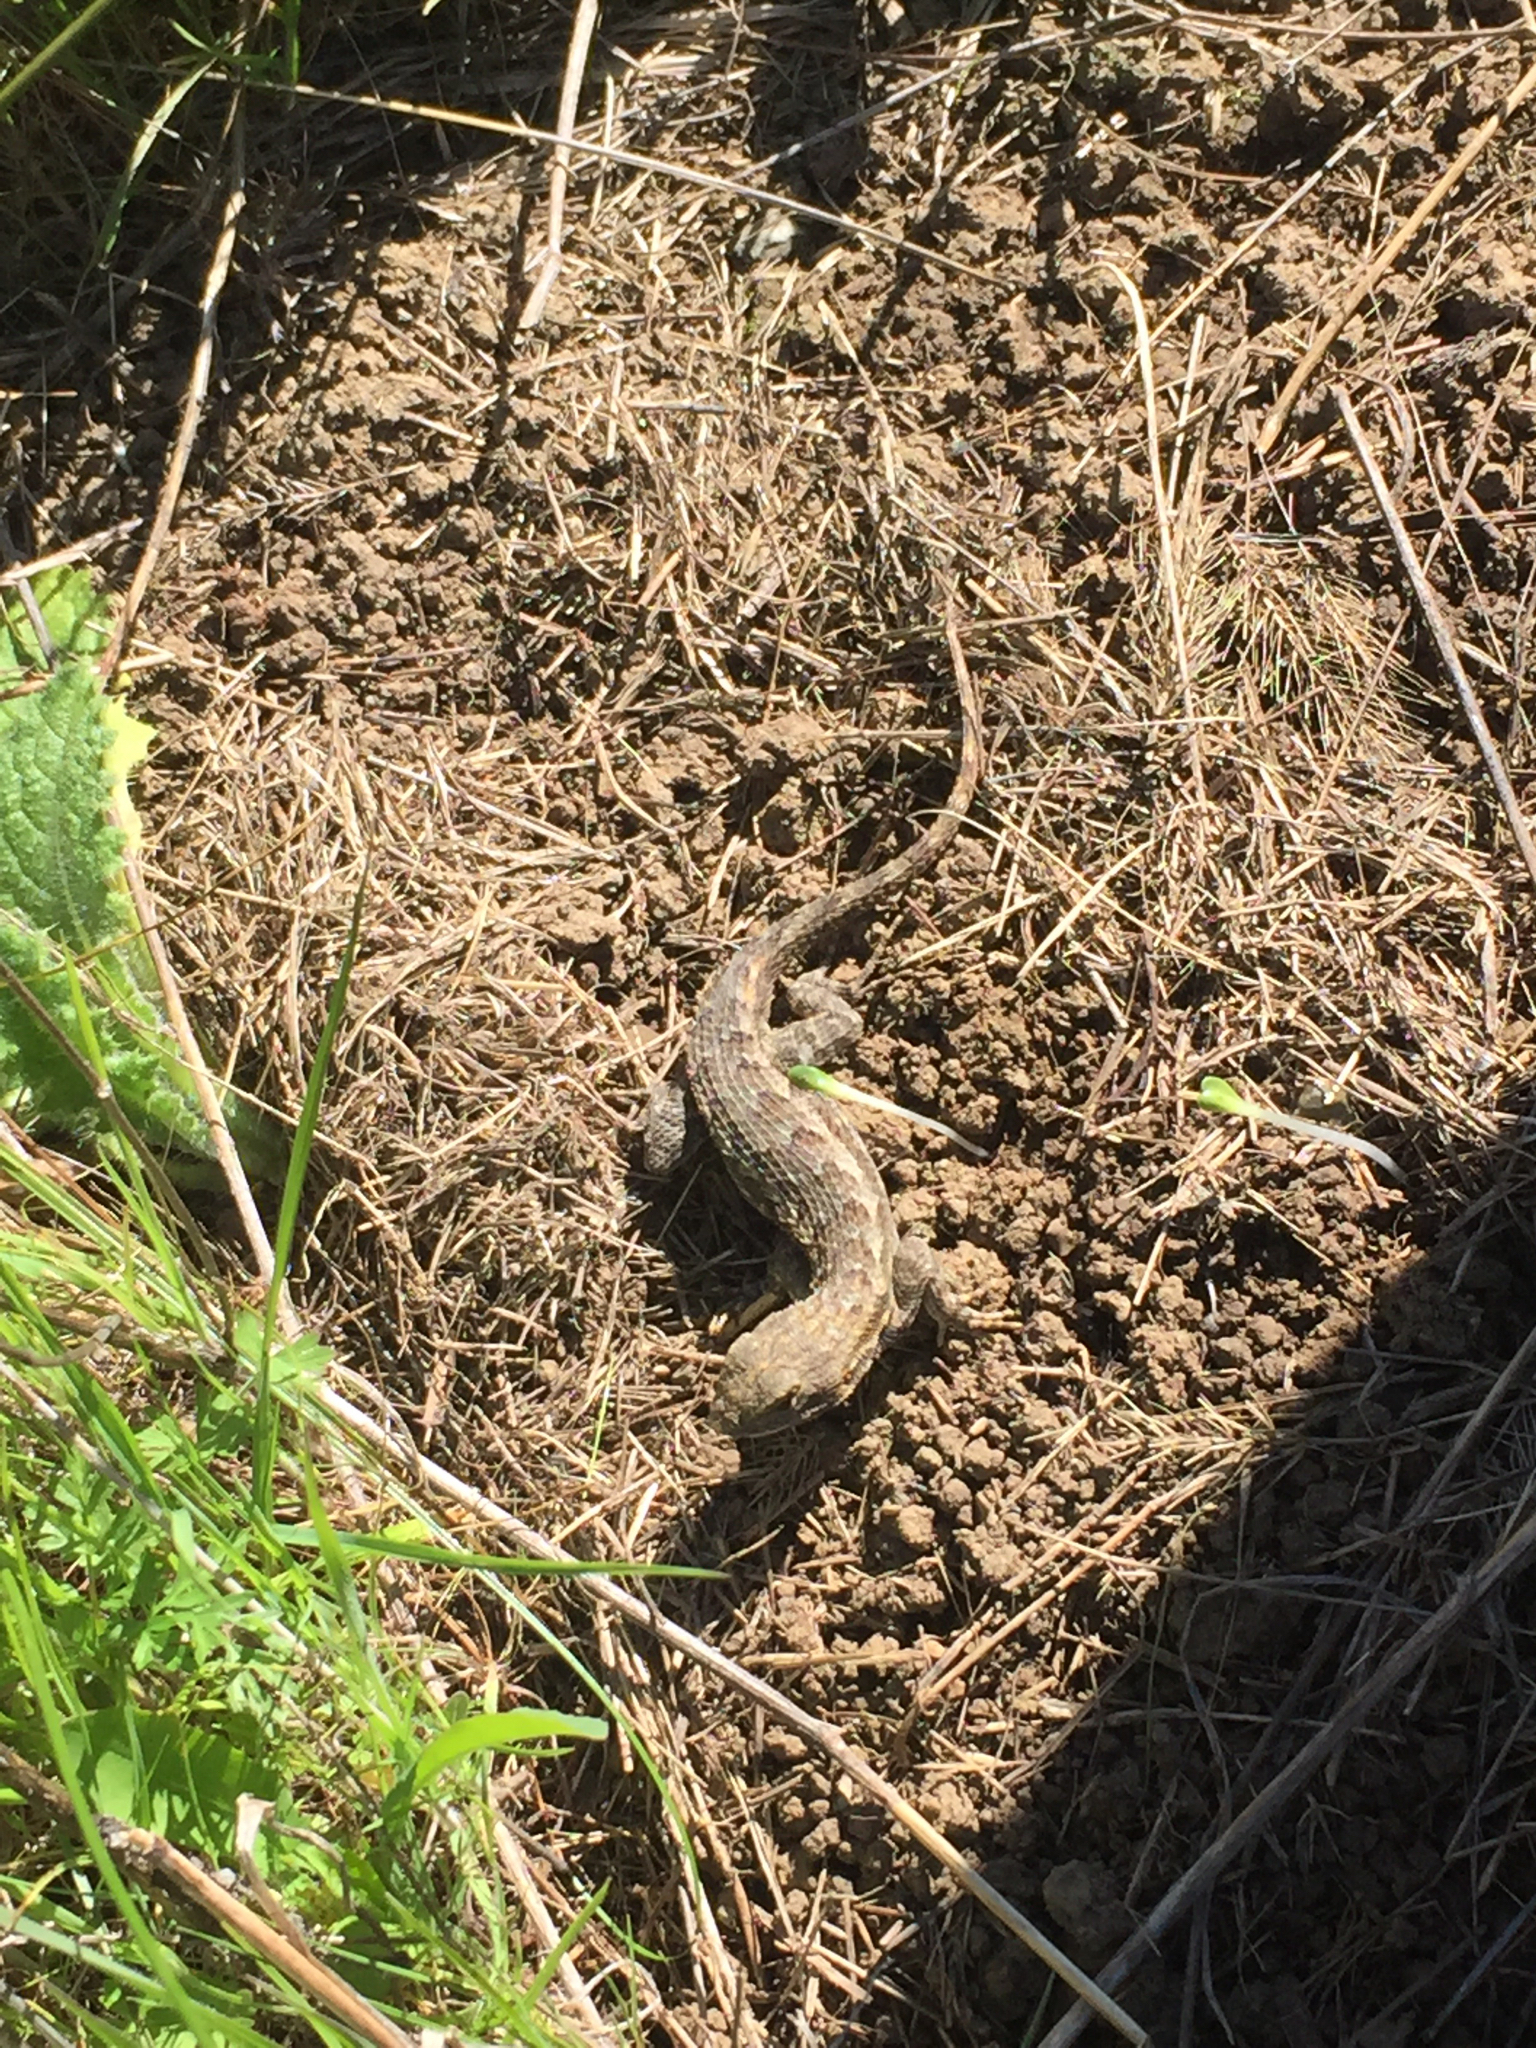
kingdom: Animalia
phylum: Chordata
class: Squamata
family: Phrynosomatidae
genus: Sceloporus
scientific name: Sceloporus occidentalis
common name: Western fence lizard
